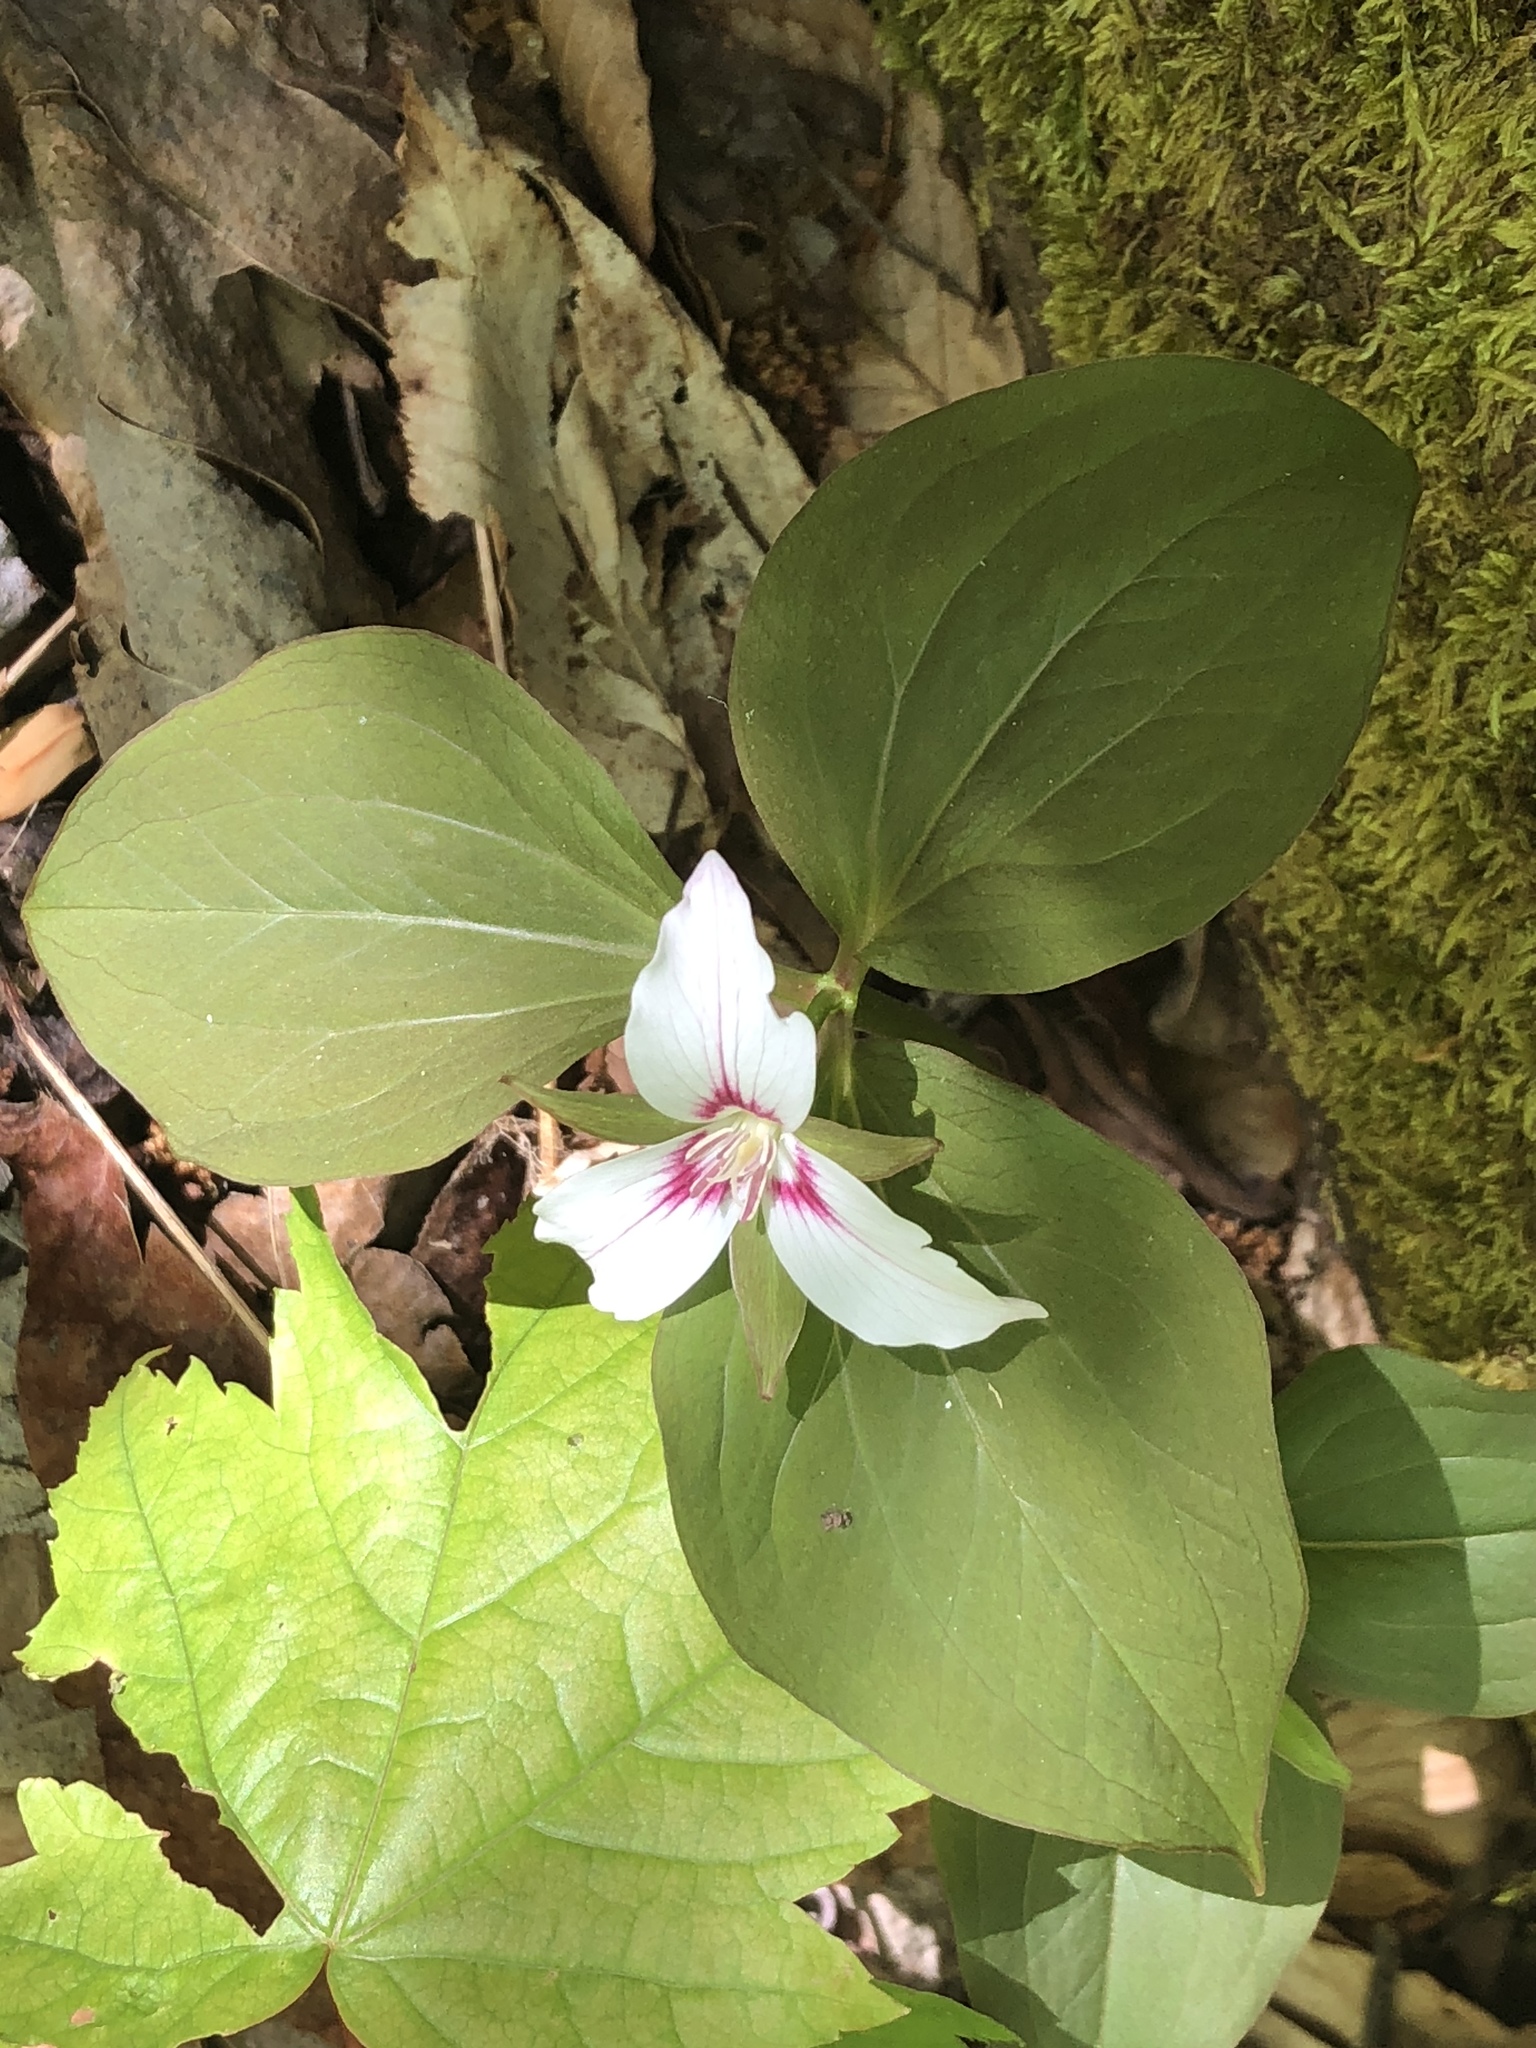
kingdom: Plantae
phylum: Tracheophyta
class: Liliopsida
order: Liliales
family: Melanthiaceae
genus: Trillium
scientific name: Trillium undulatum
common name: Paint trillium
